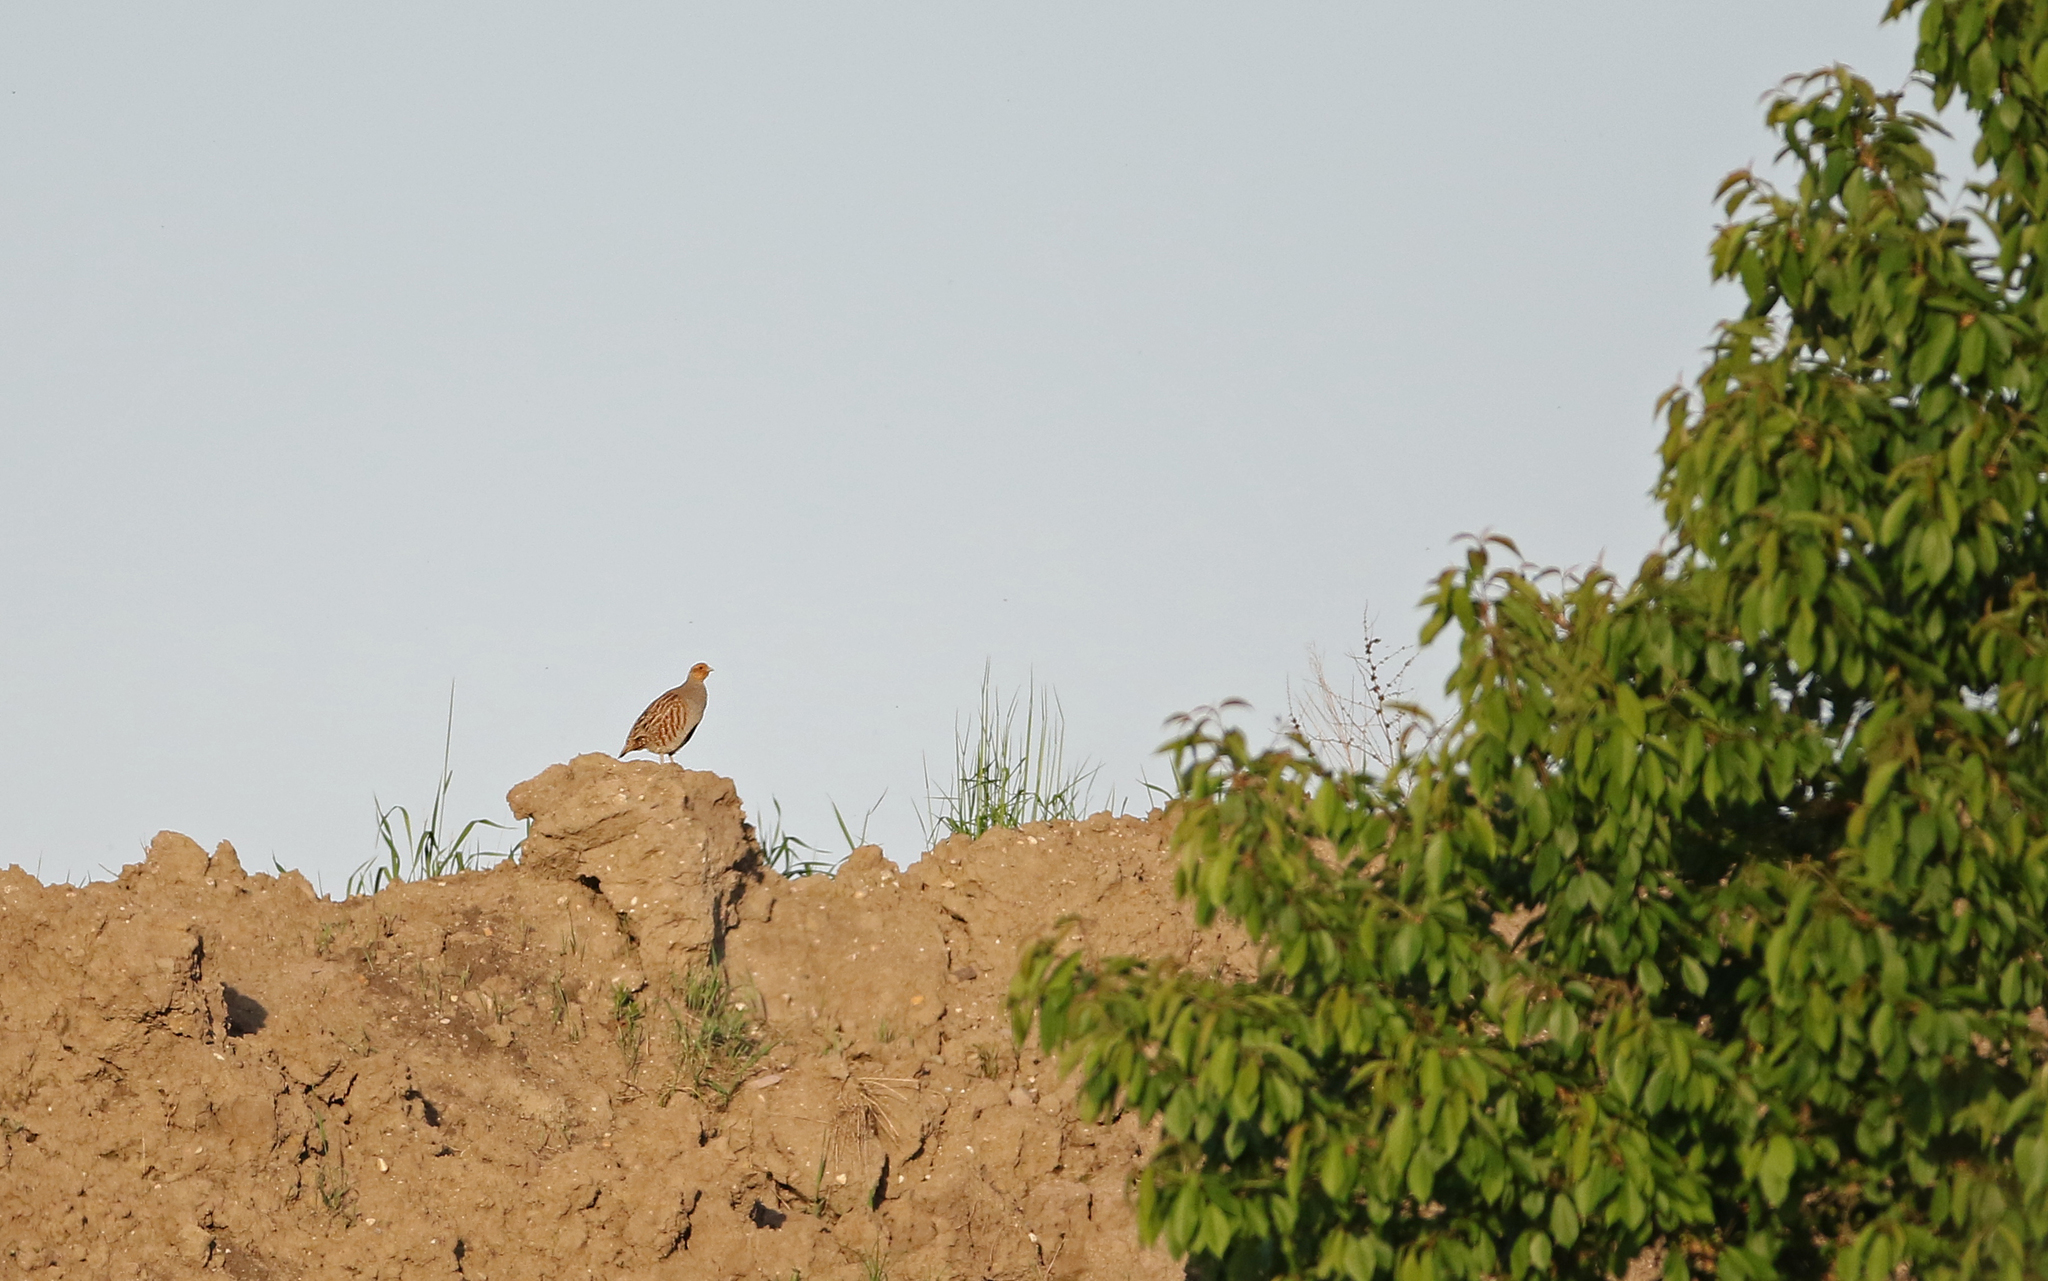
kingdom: Animalia
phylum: Chordata
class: Aves
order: Galliformes
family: Phasianidae
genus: Perdix
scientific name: Perdix perdix
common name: Grey partridge
